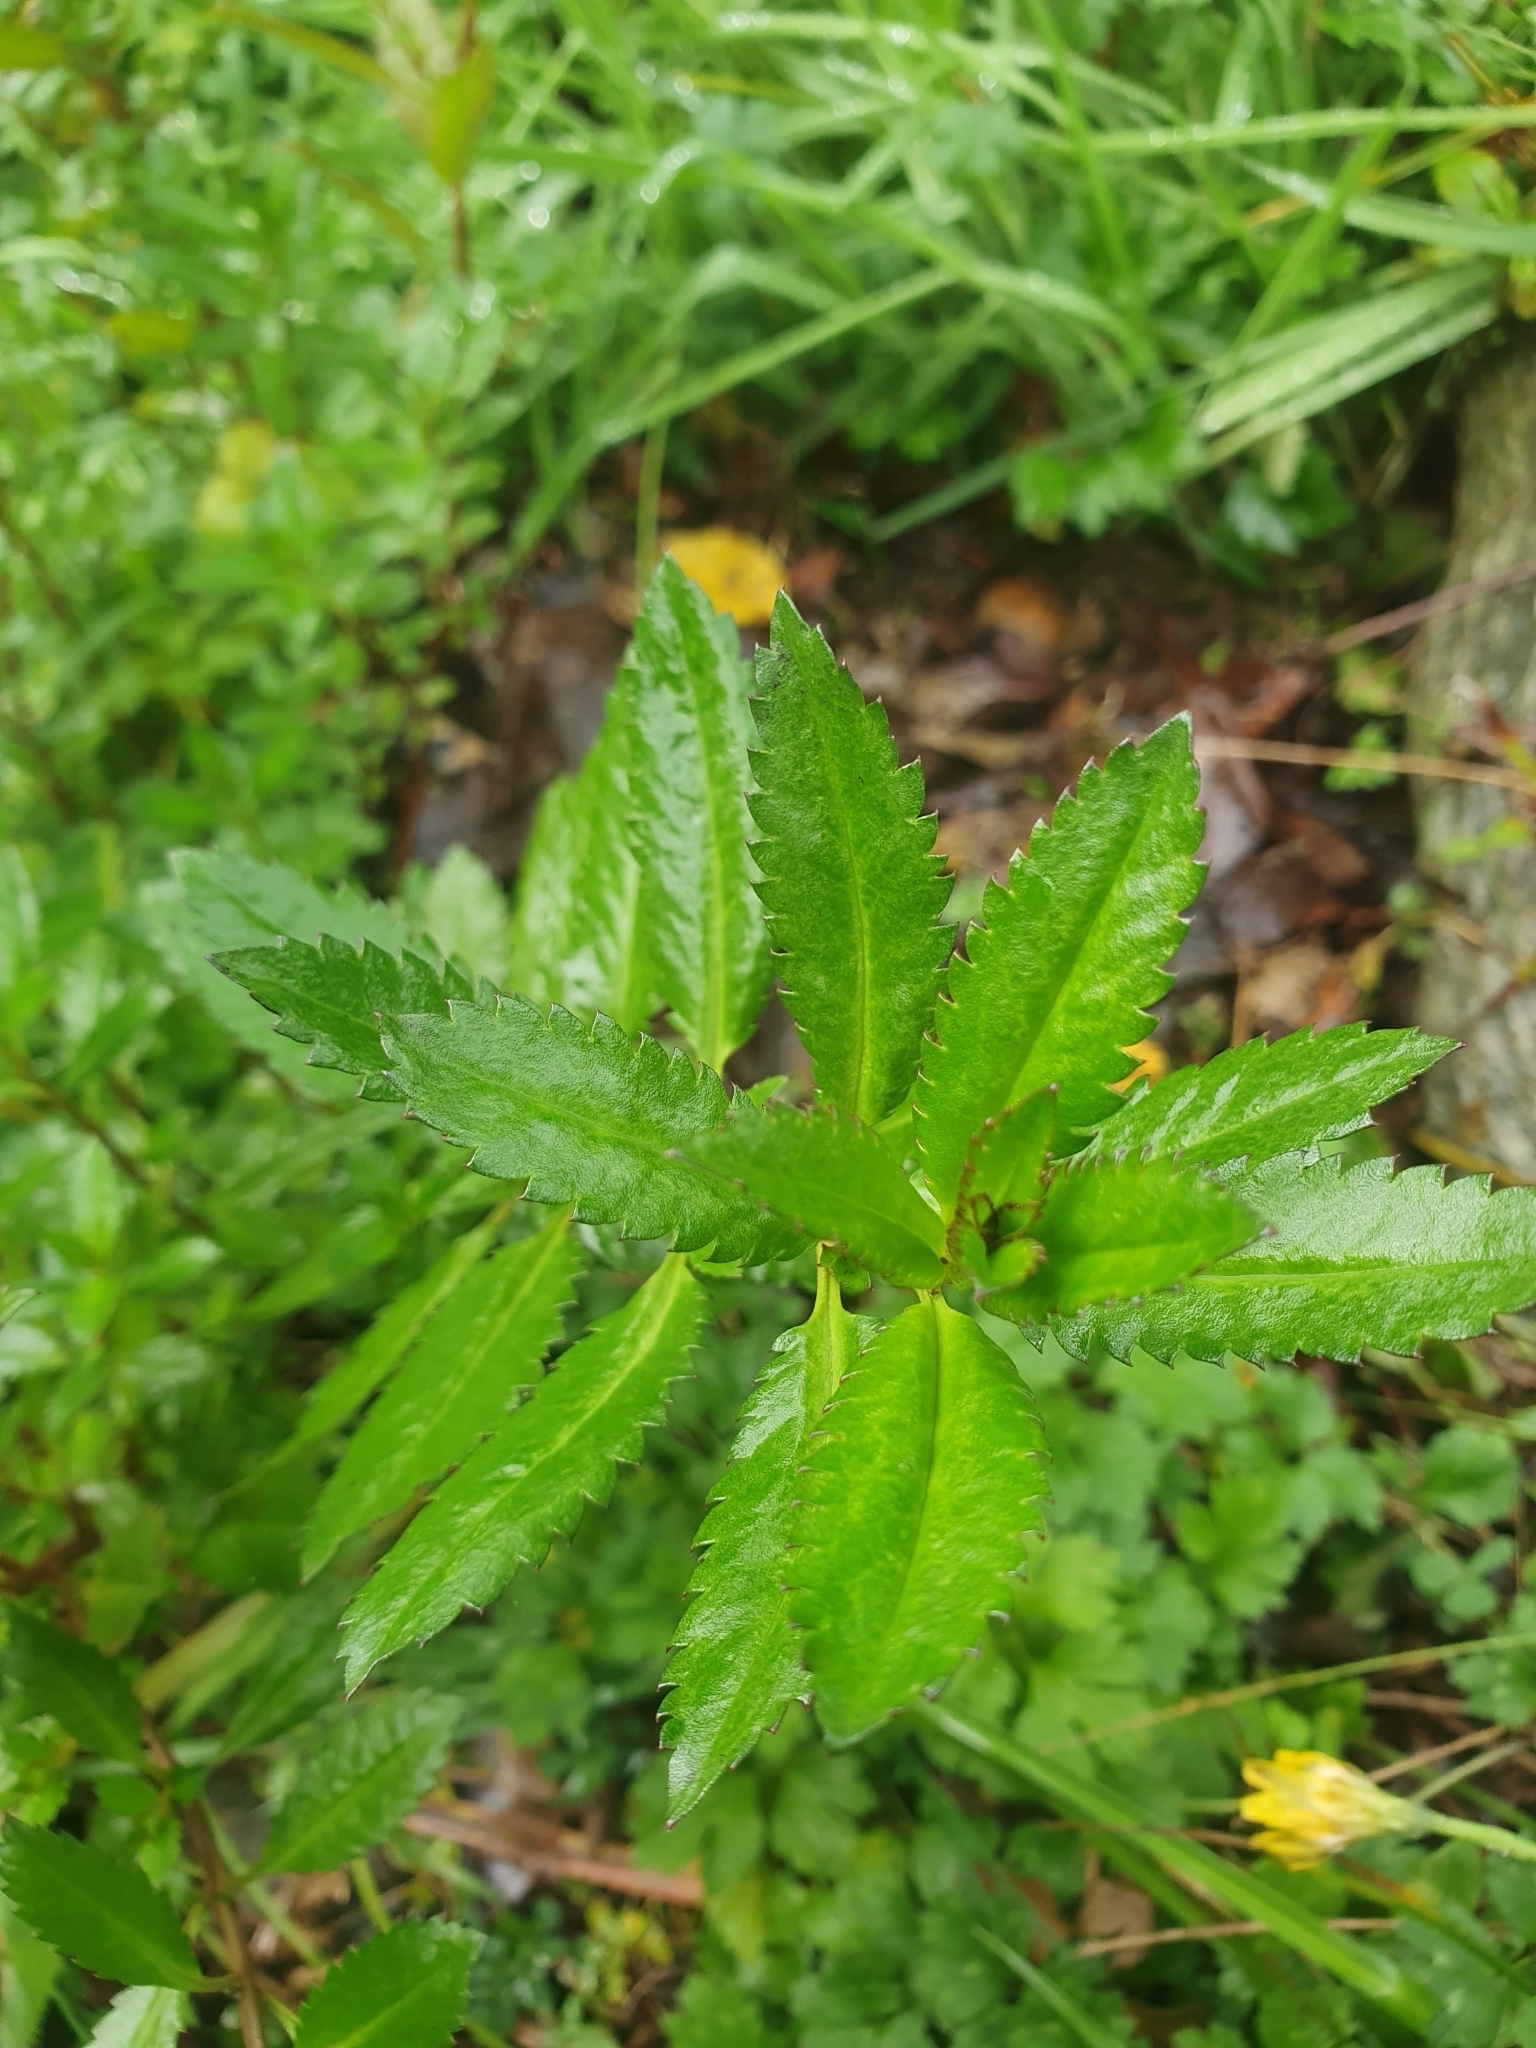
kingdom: Plantae
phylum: Tracheophyta
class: Magnoliopsida
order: Saxifragales
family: Haloragaceae
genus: Haloragis
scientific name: Haloragis erecta
